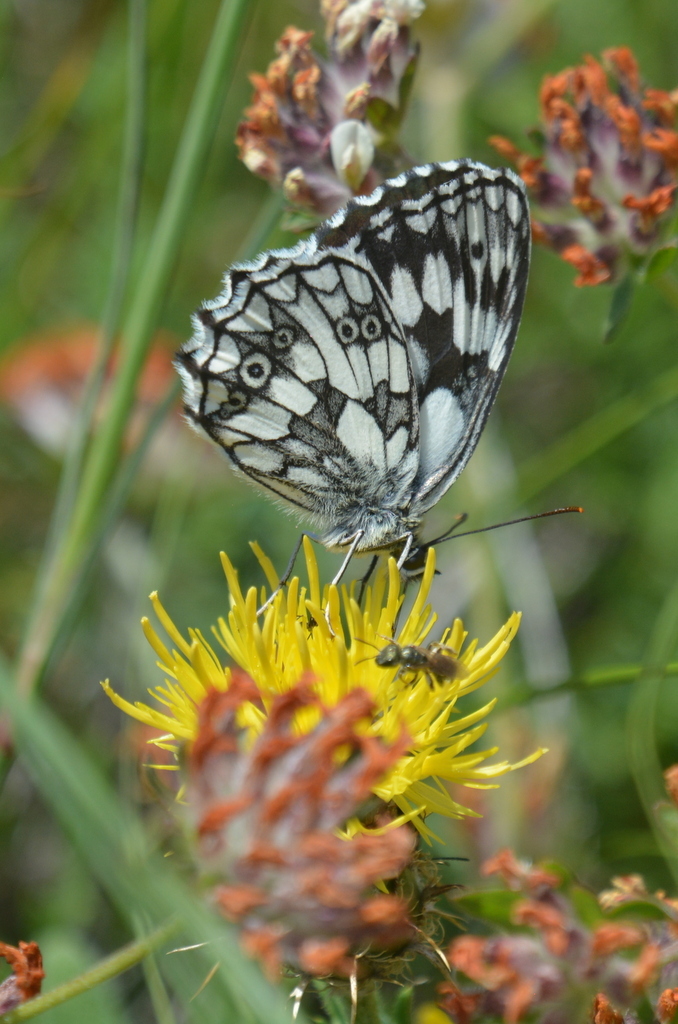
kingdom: Animalia
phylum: Arthropoda
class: Insecta
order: Lepidoptera
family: Nymphalidae
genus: Melanargia
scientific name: Melanargia galathea
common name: Marbled white
